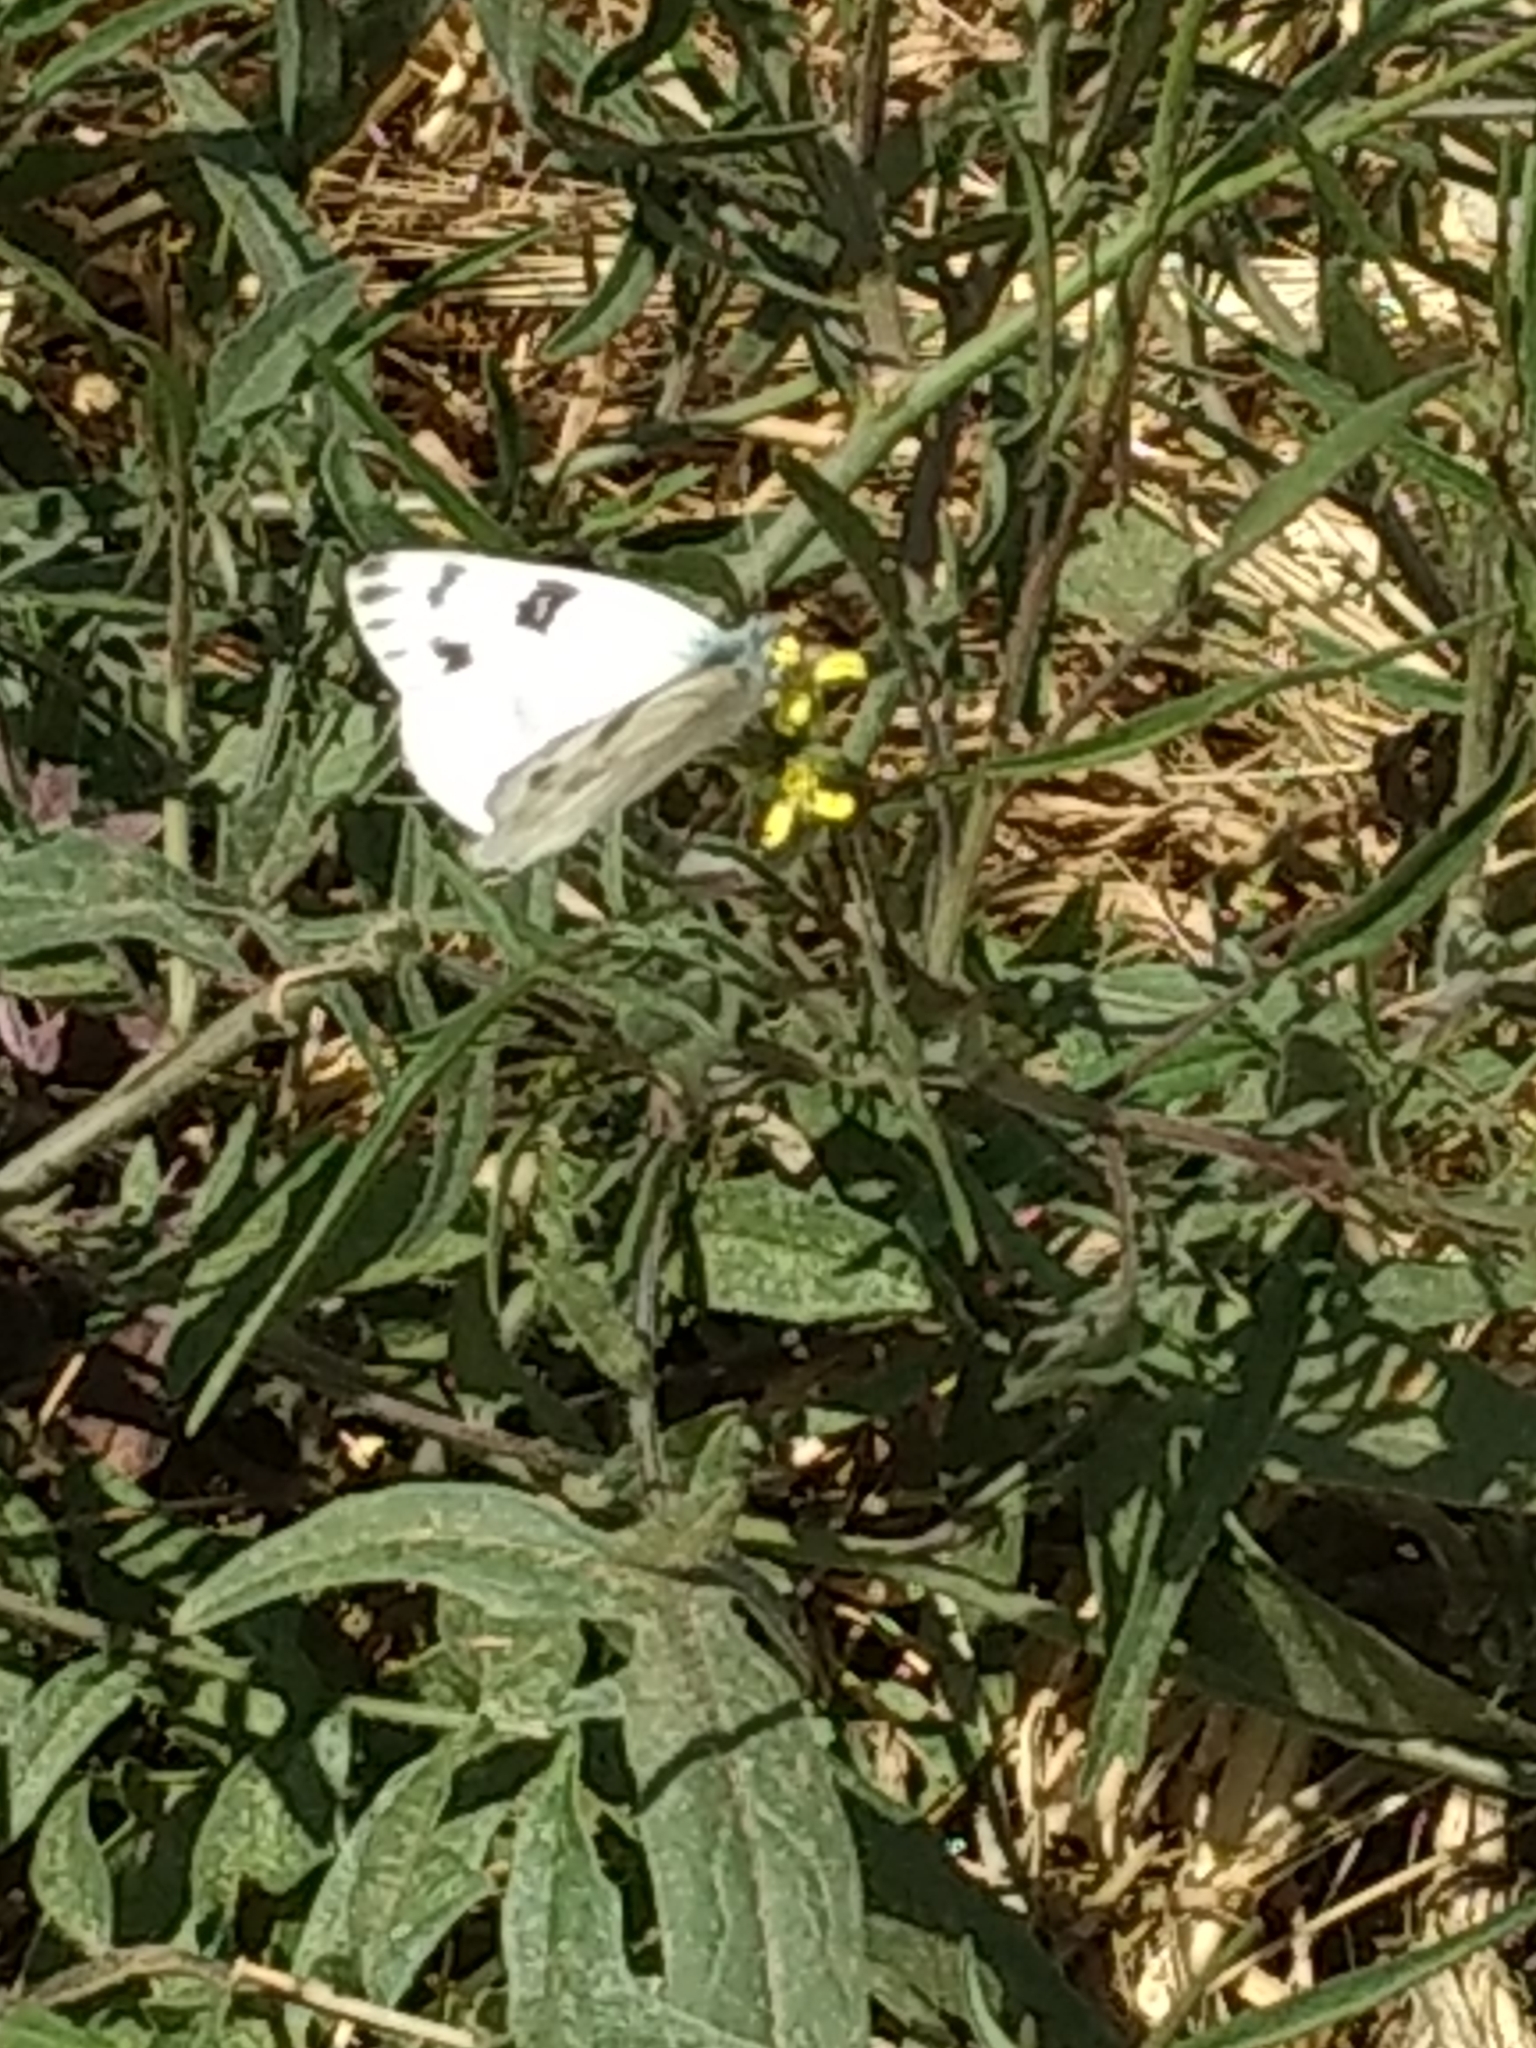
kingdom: Animalia
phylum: Arthropoda
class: Insecta
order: Lepidoptera
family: Pieridae
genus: Pontia
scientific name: Pontia protodice
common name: Checkered white
